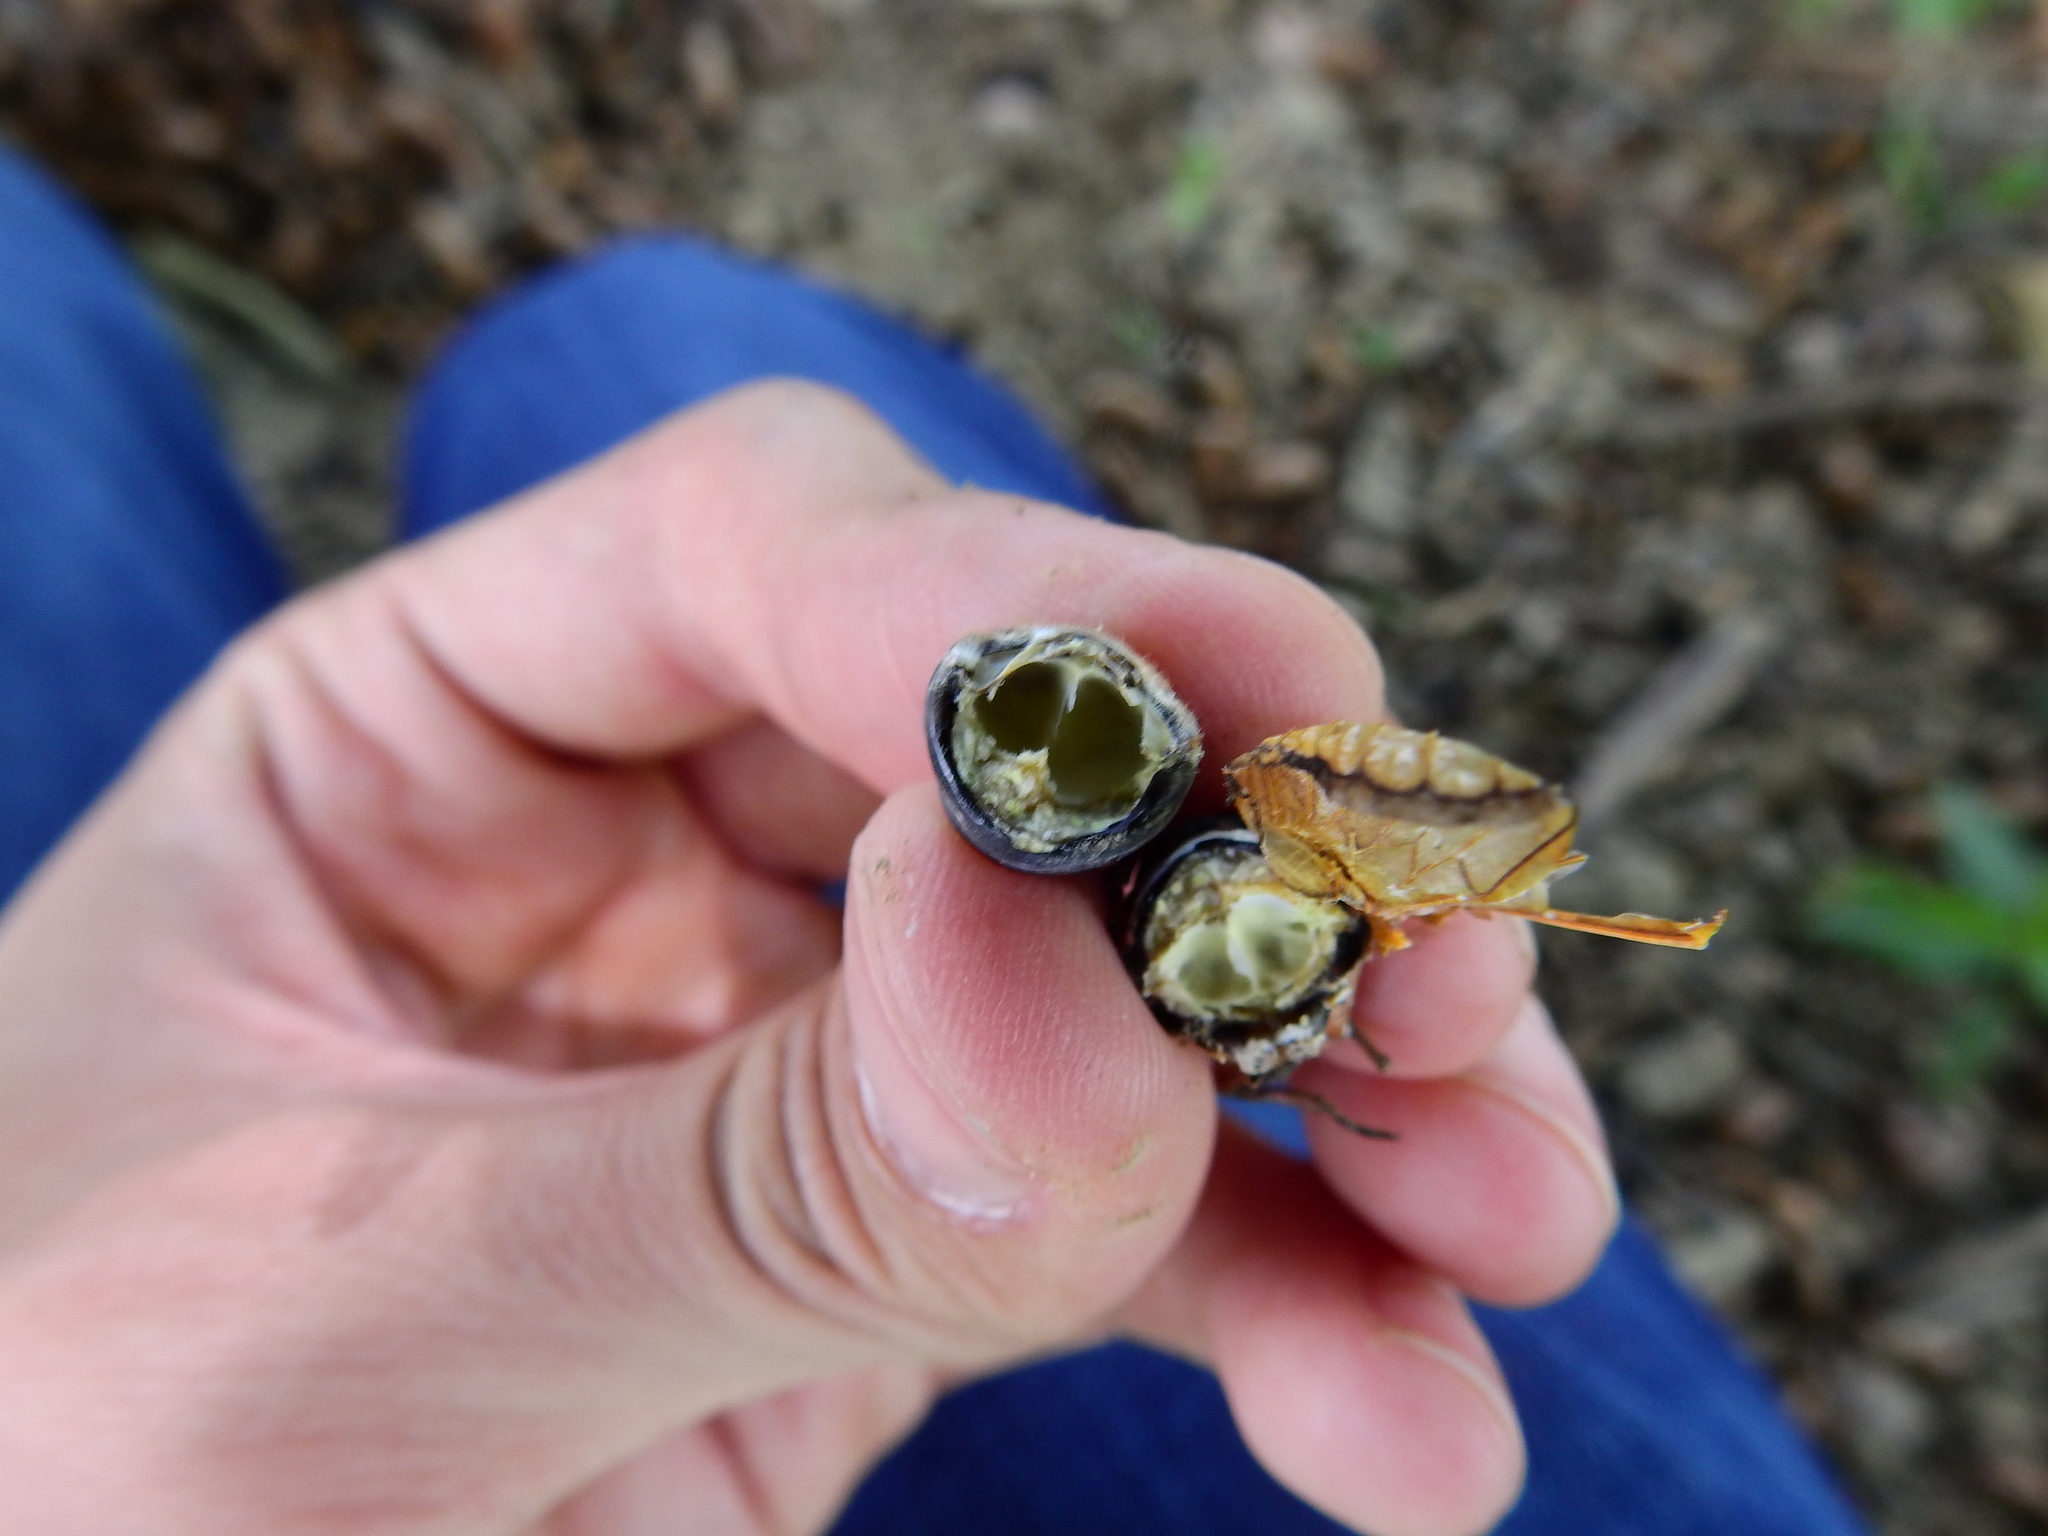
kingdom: Fungi
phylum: Entomophthoromycota
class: Entomophthoromycetes
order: Entomophthorales
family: Entomophthoraceae
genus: Massospora
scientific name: Massospora cicadina
